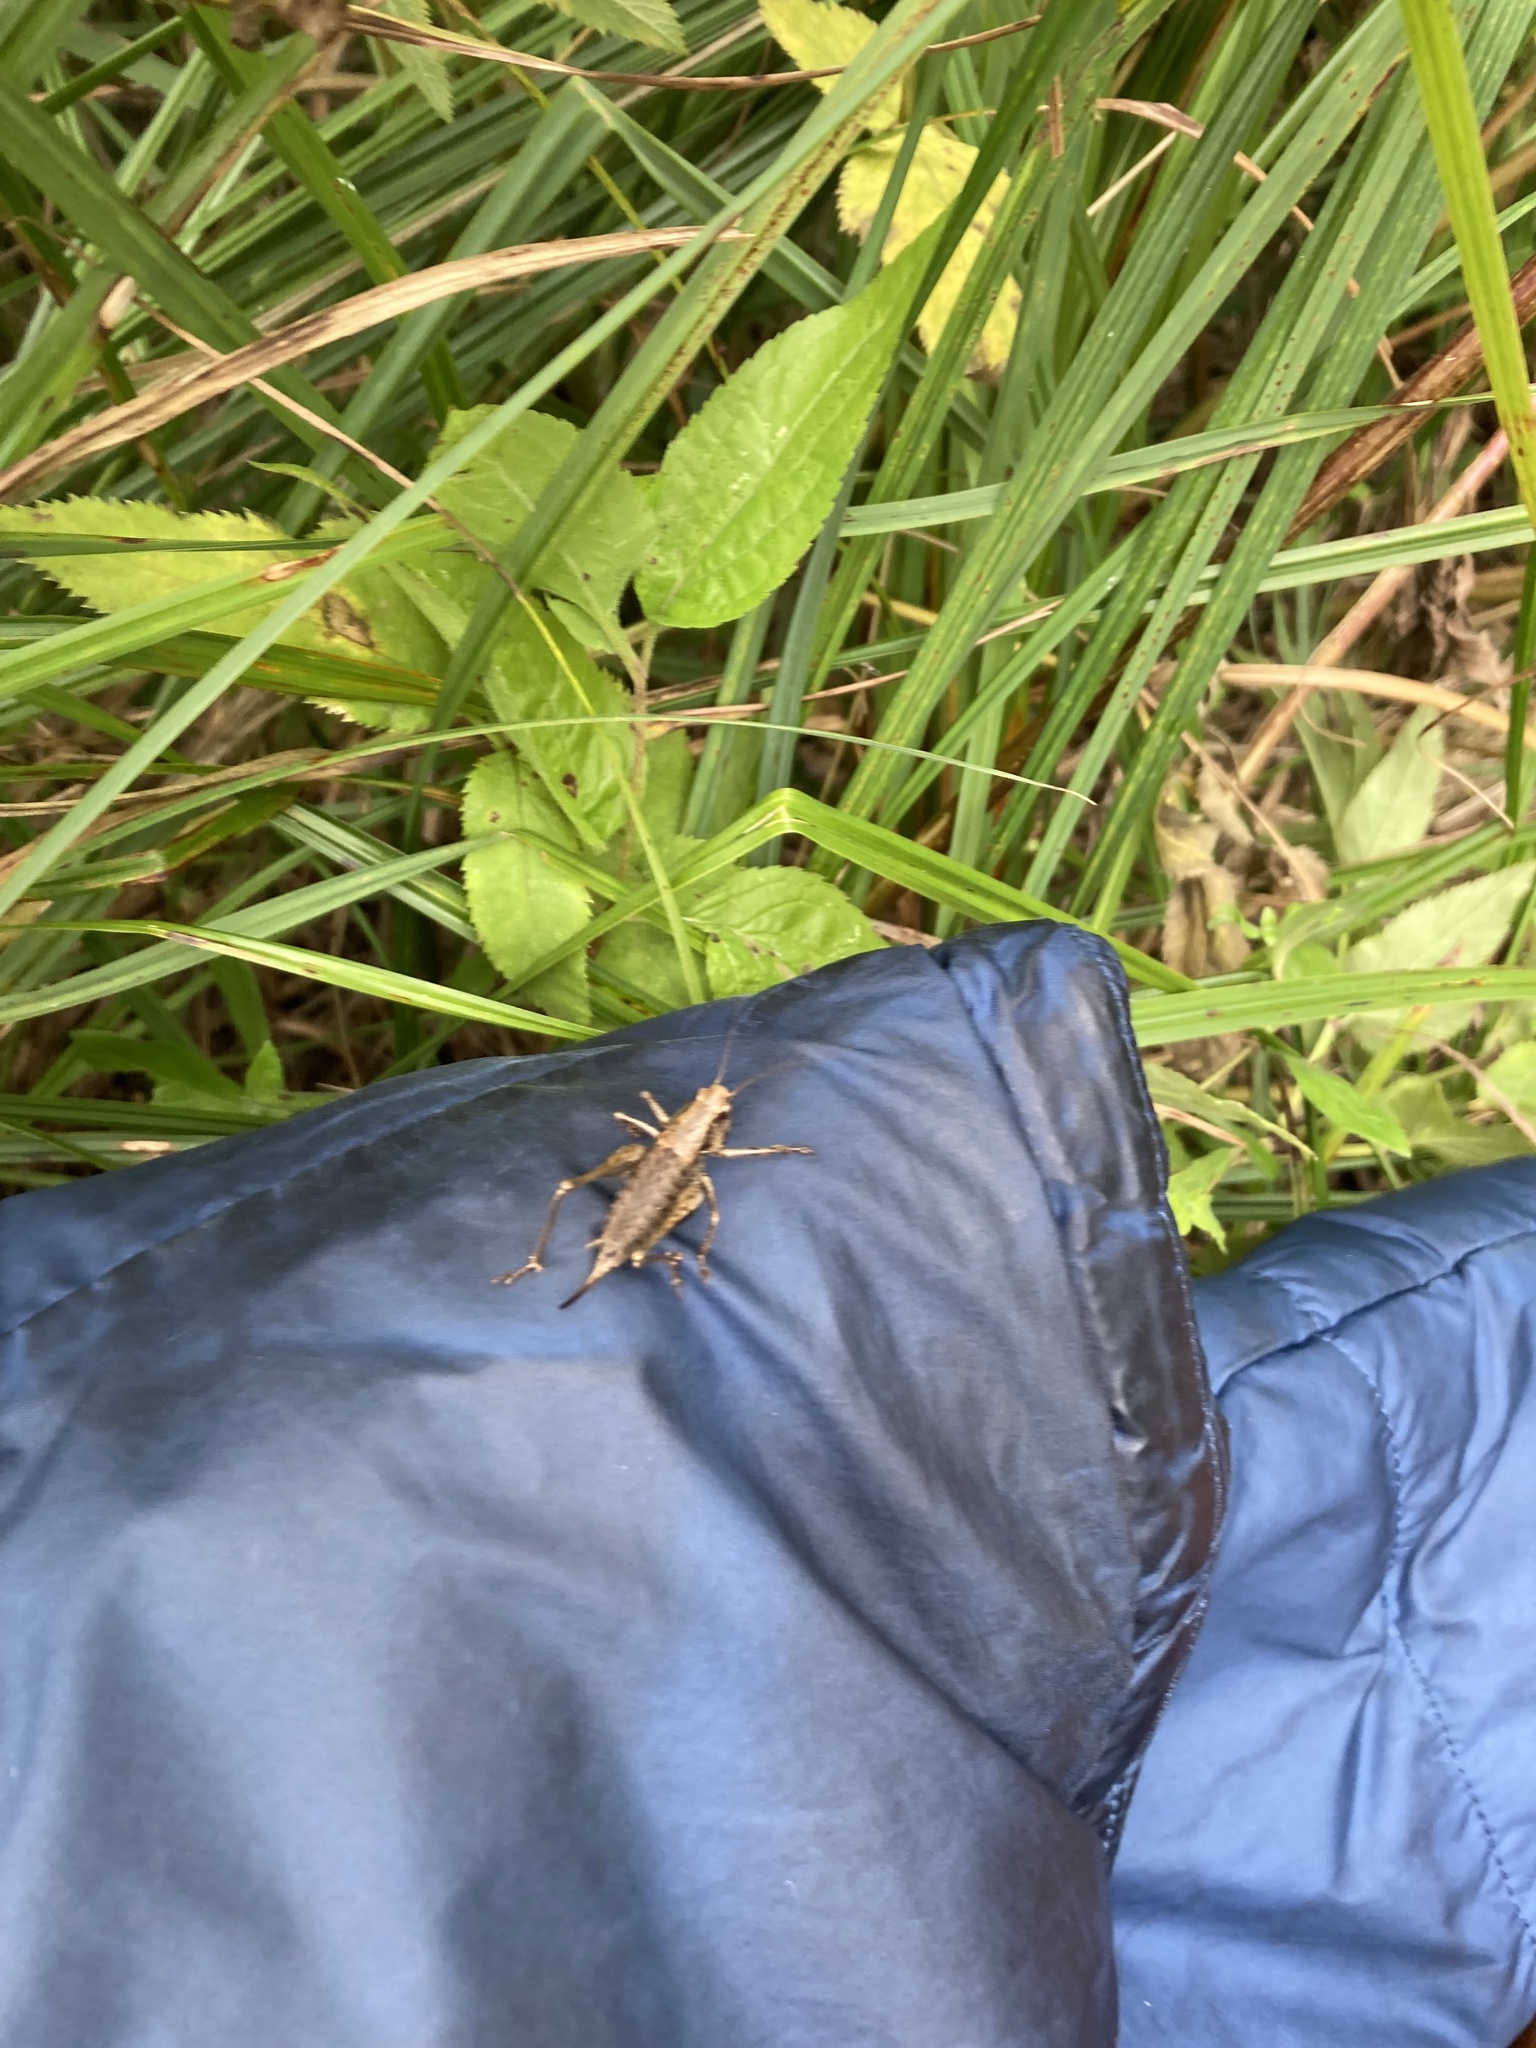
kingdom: Animalia
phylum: Arthropoda
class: Insecta
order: Orthoptera
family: Tettigoniidae
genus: Pholidoptera
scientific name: Pholidoptera griseoaptera
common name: Dark bush-cricket
